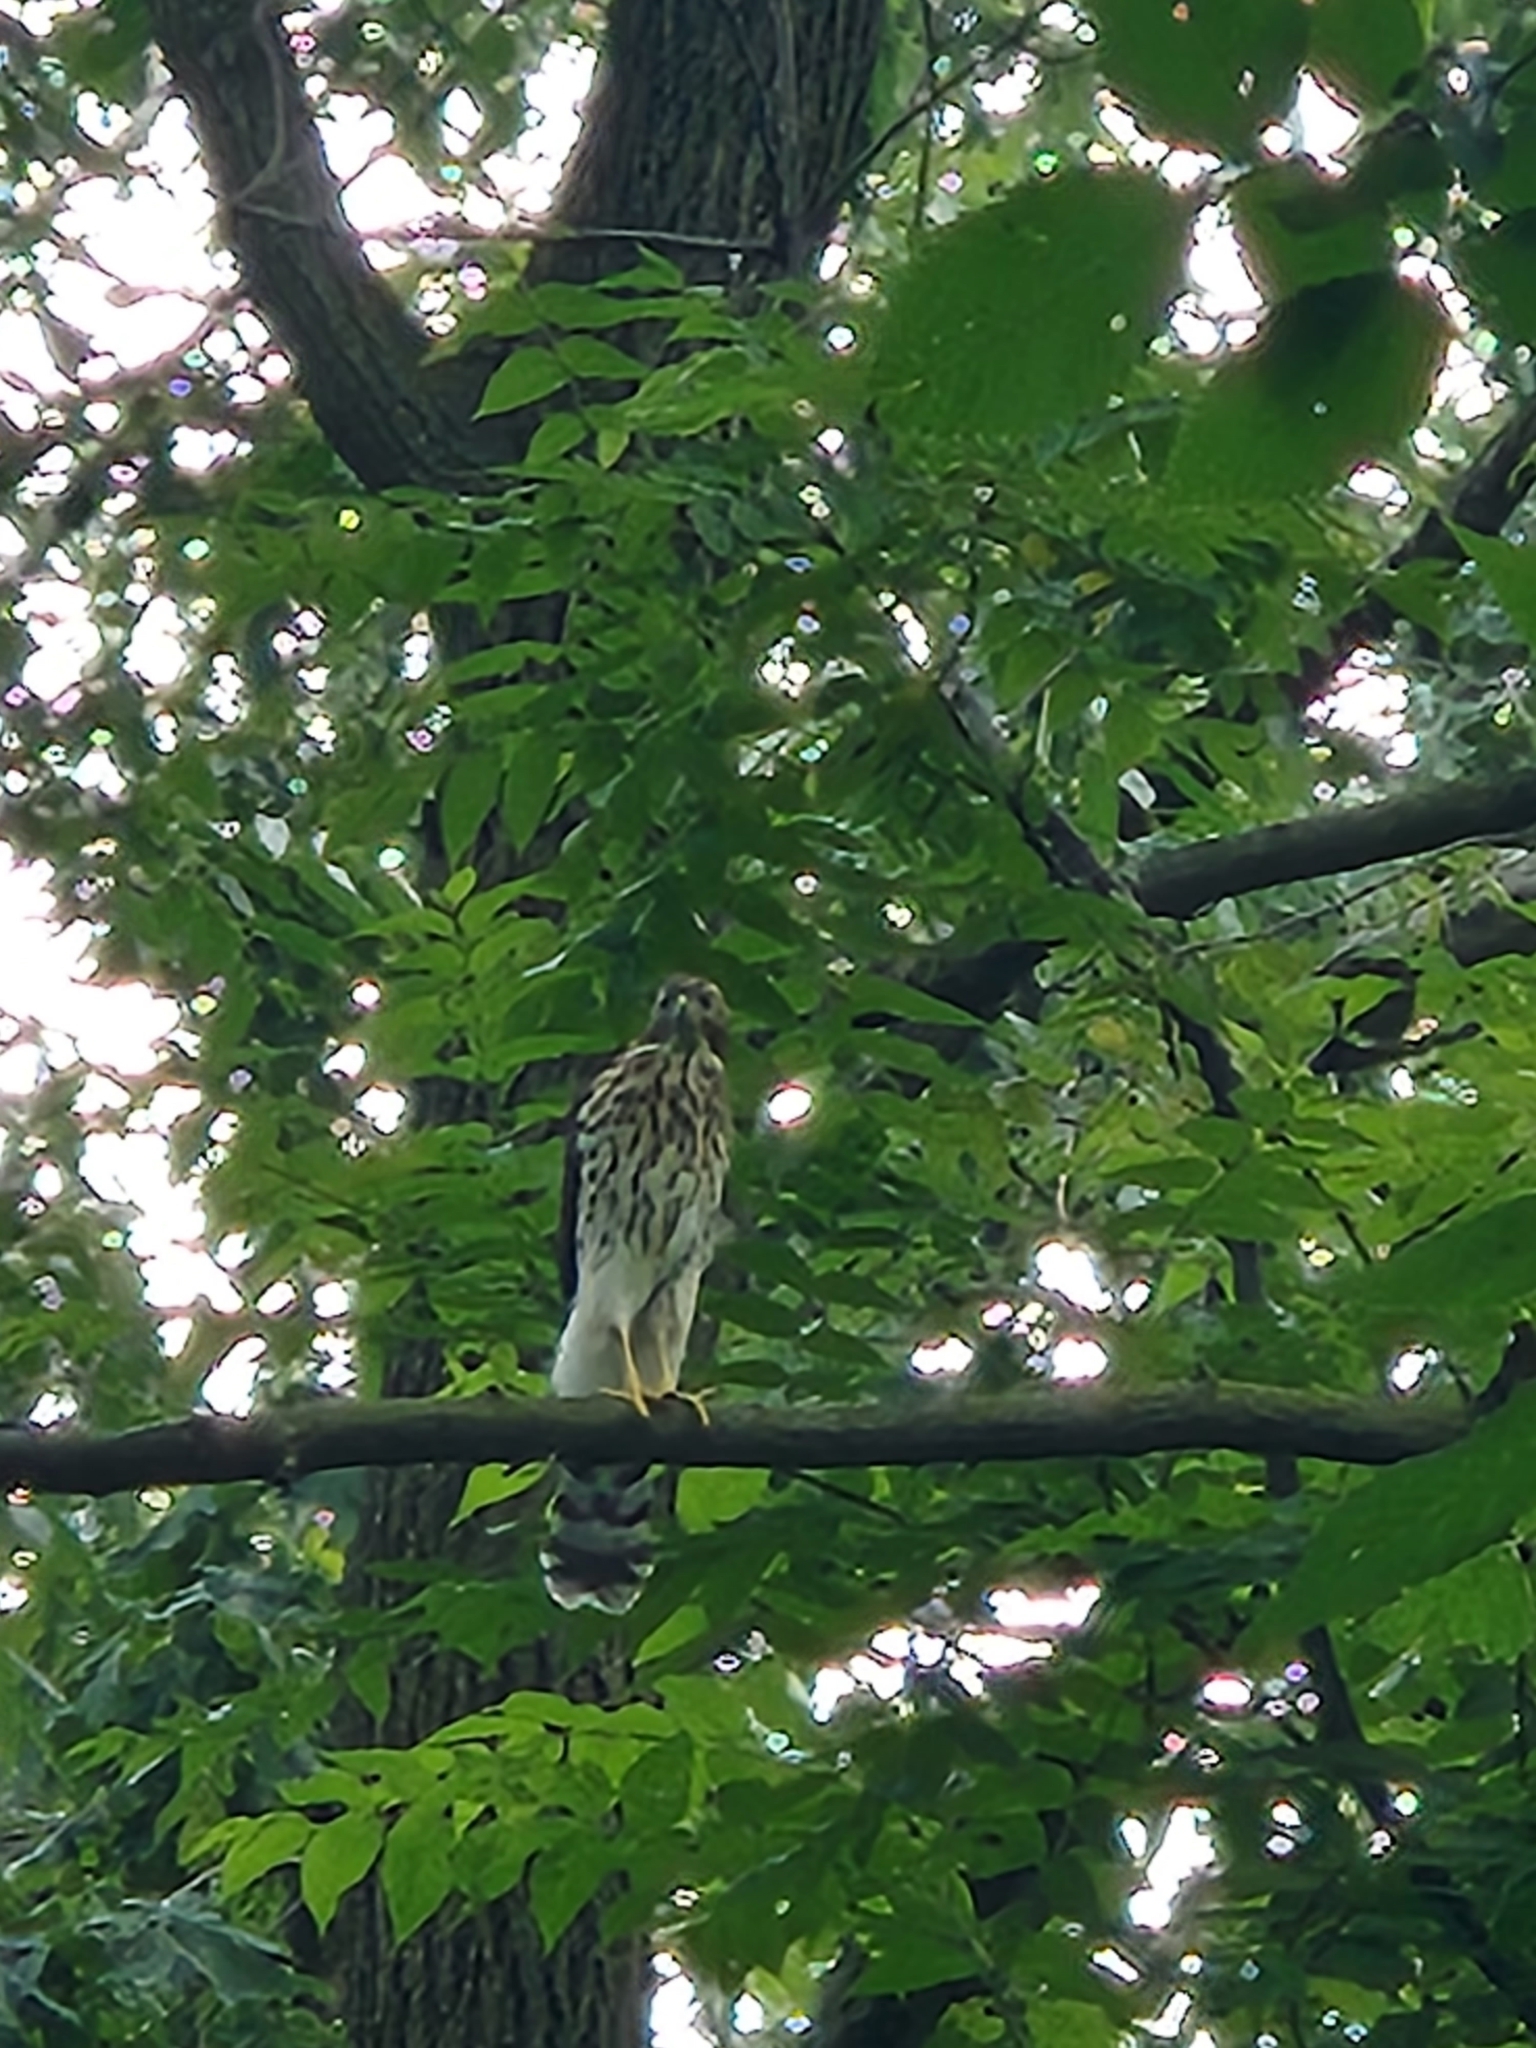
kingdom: Animalia
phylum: Chordata
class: Aves
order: Accipitriformes
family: Accipitridae
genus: Accipiter
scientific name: Accipiter cooperii
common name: Cooper's hawk
